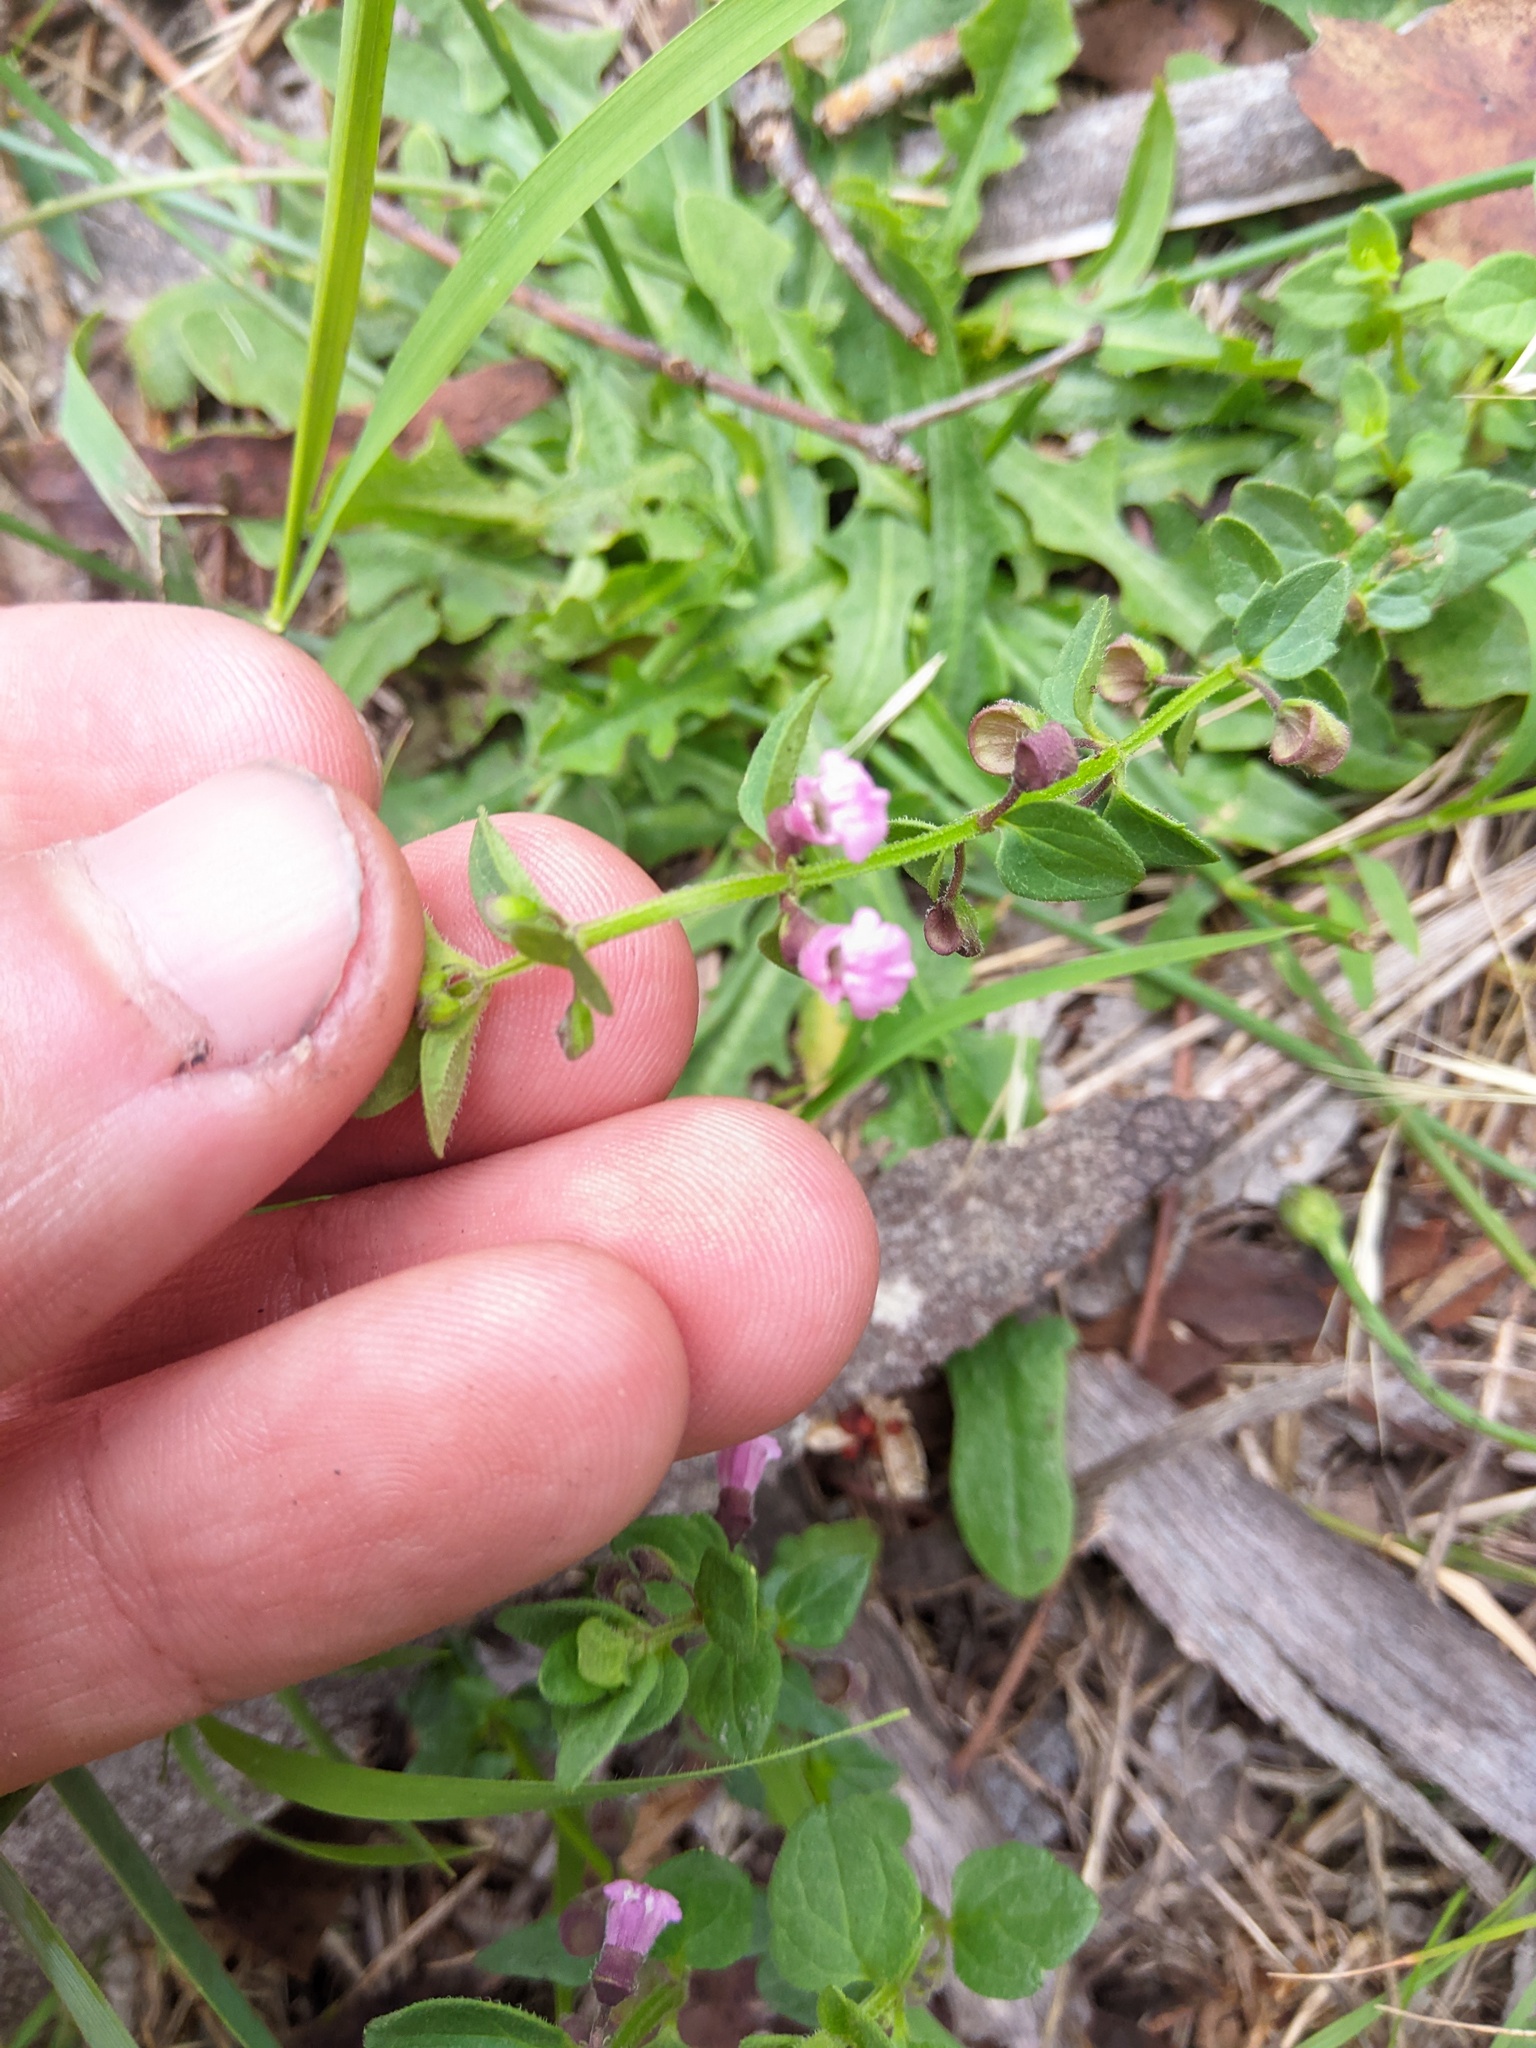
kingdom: Plantae
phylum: Tracheophyta
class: Magnoliopsida
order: Lamiales
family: Lamiaceae
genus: Scutellaria
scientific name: Scutellaria humilis
